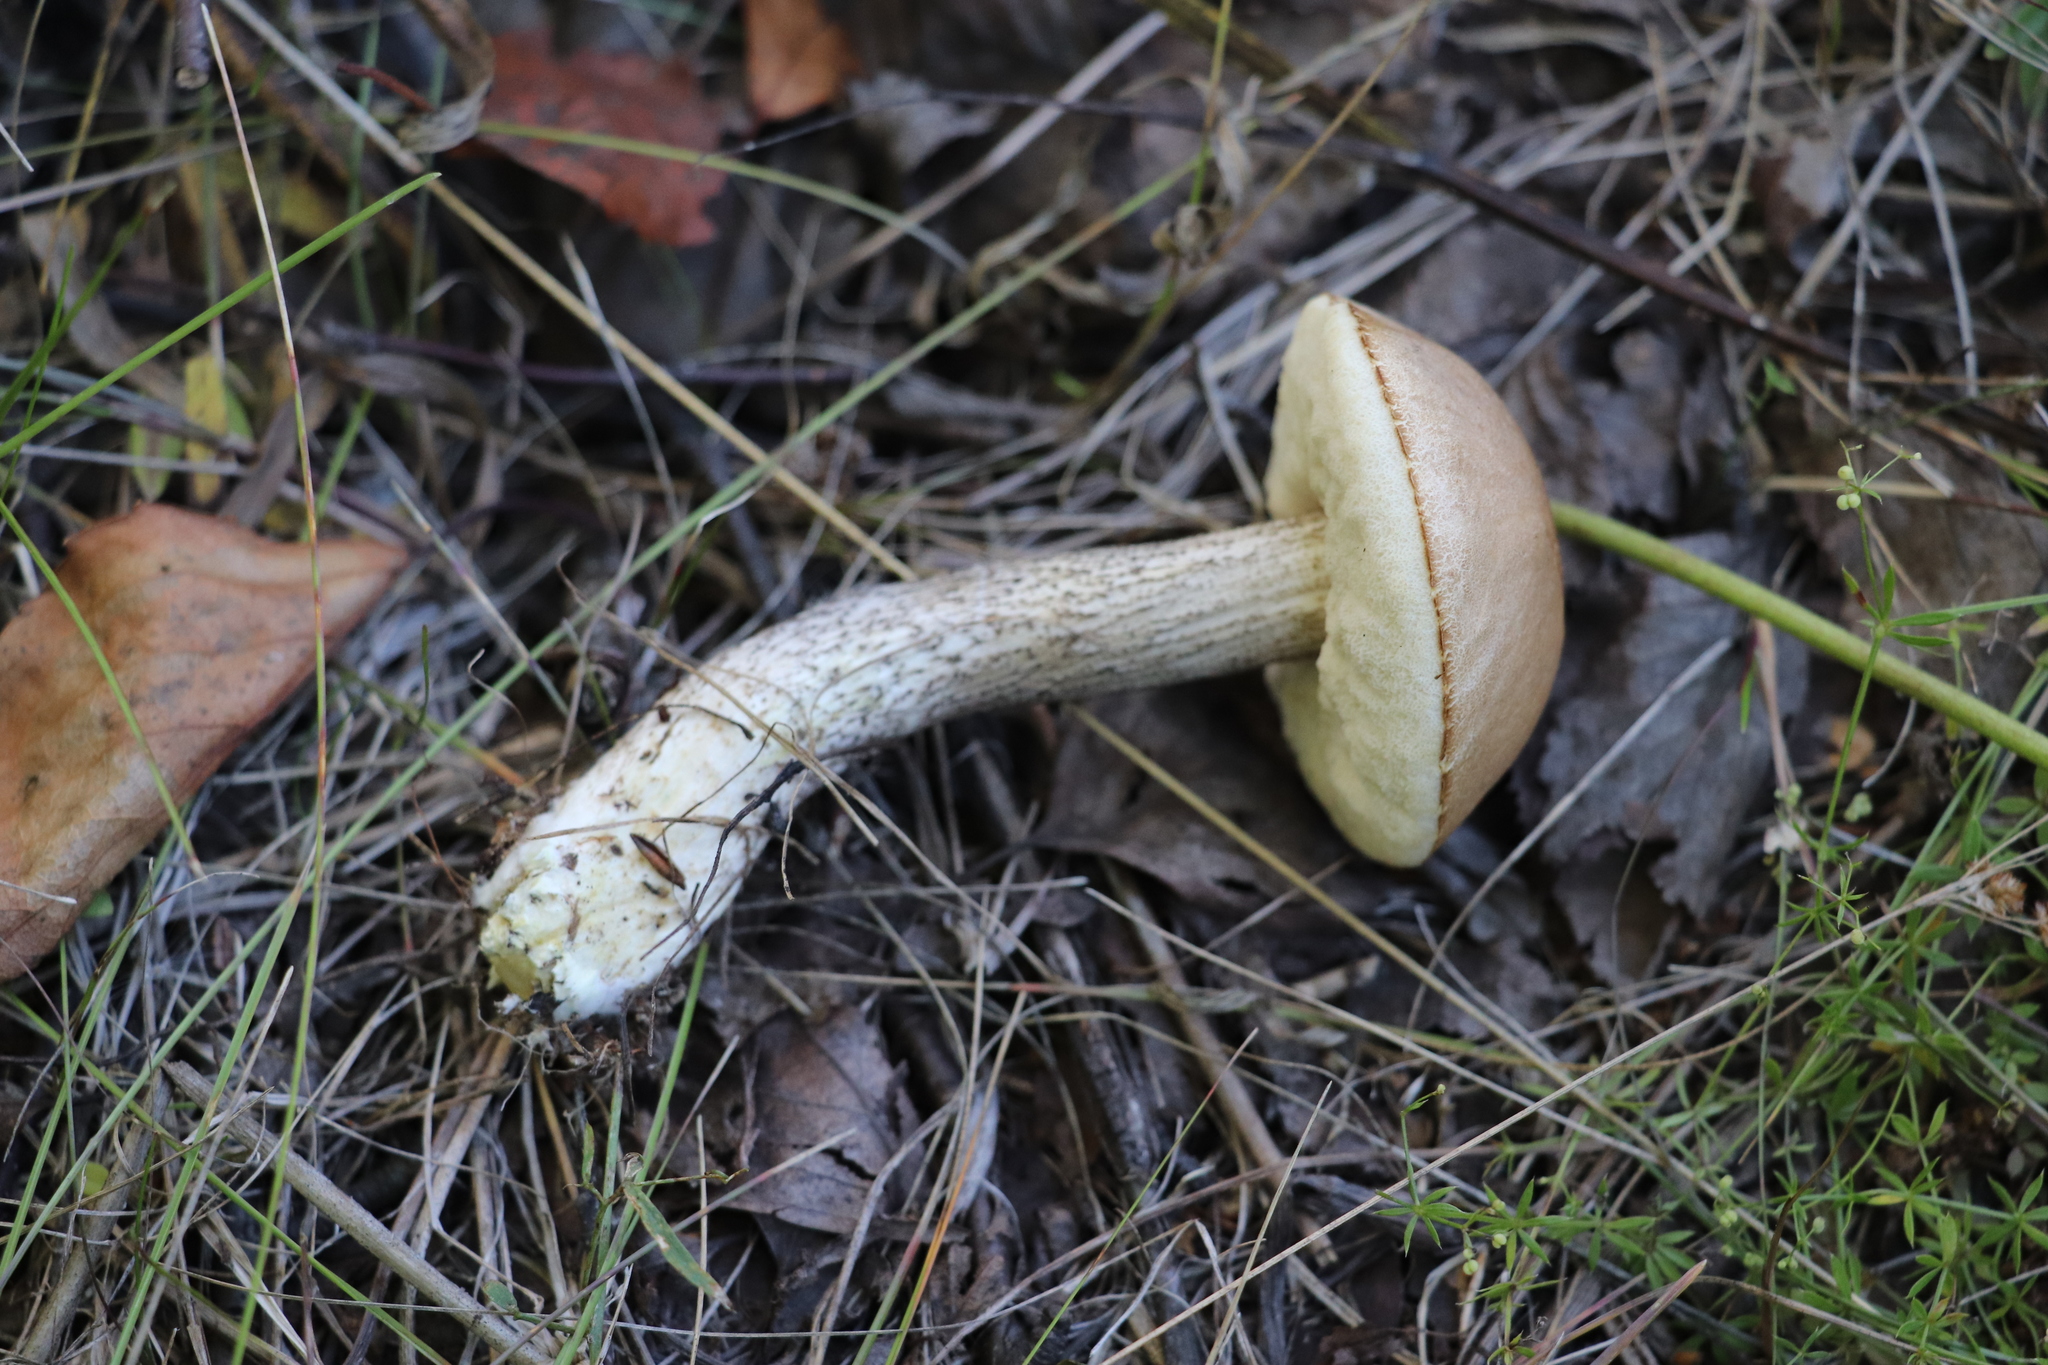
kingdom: Fungi
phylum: Basidiomycota
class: Agaricomycetes
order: Boletales
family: Boletaceae
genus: Leccinum
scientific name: Leccinum scabrum
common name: Blushing bolete
